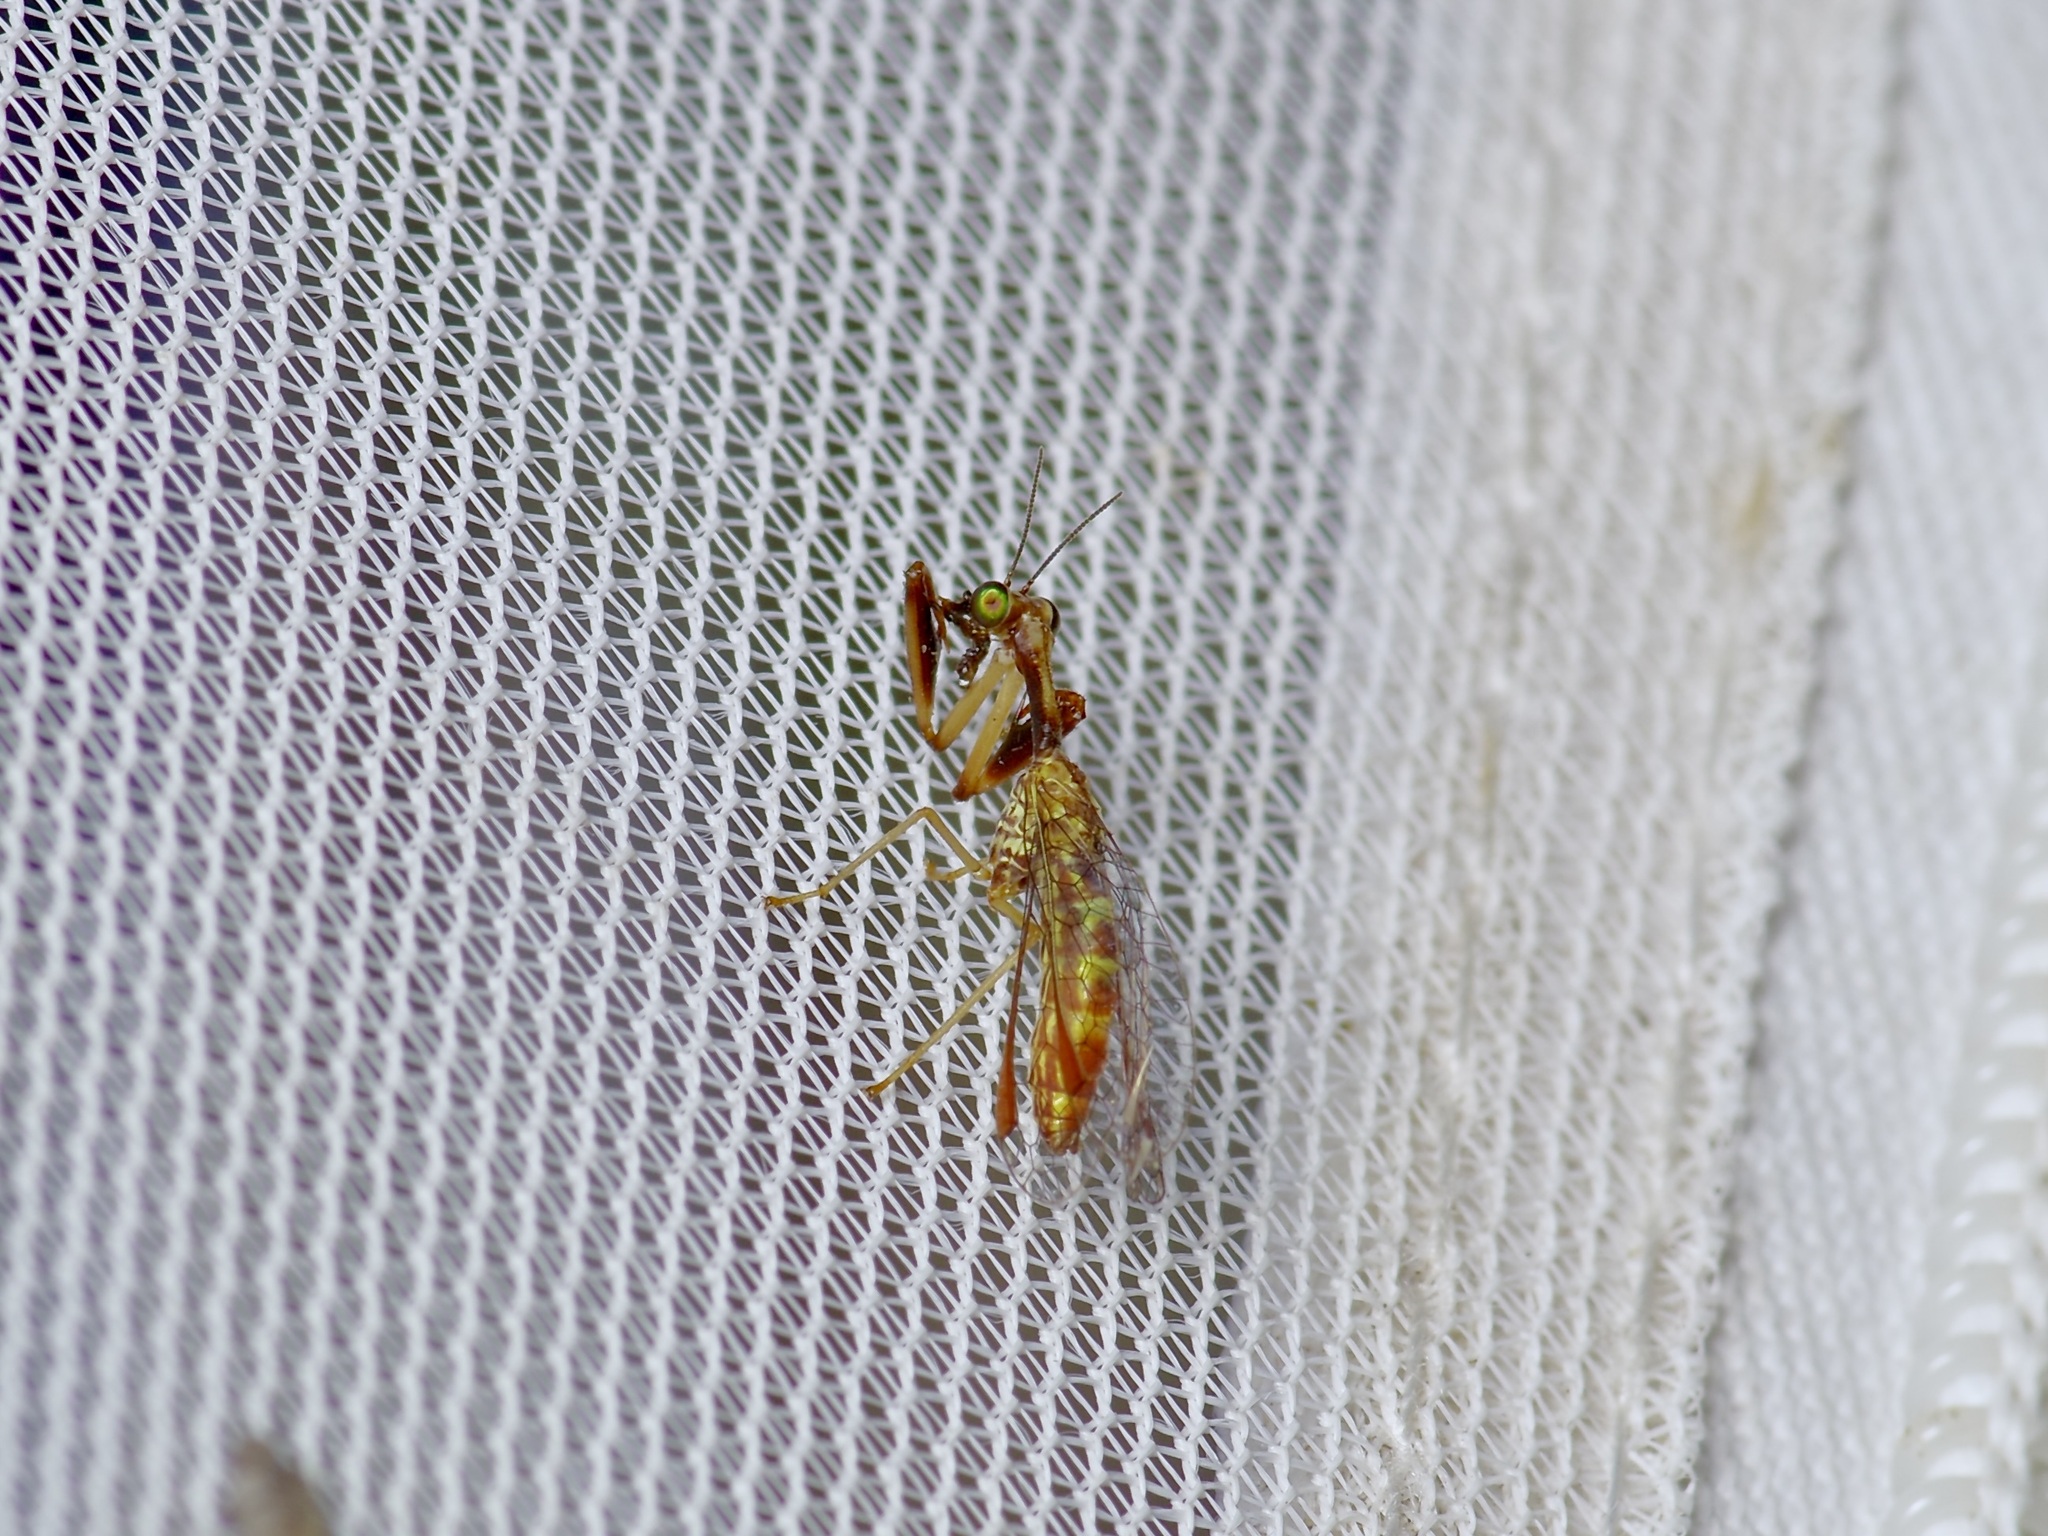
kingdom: Animalia
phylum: Arthropoda
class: Insecta
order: Neuroptera
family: Mantispidae
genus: Leptomantispa
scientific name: Leptomantispa pulchella
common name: Stevens's mantidfly
